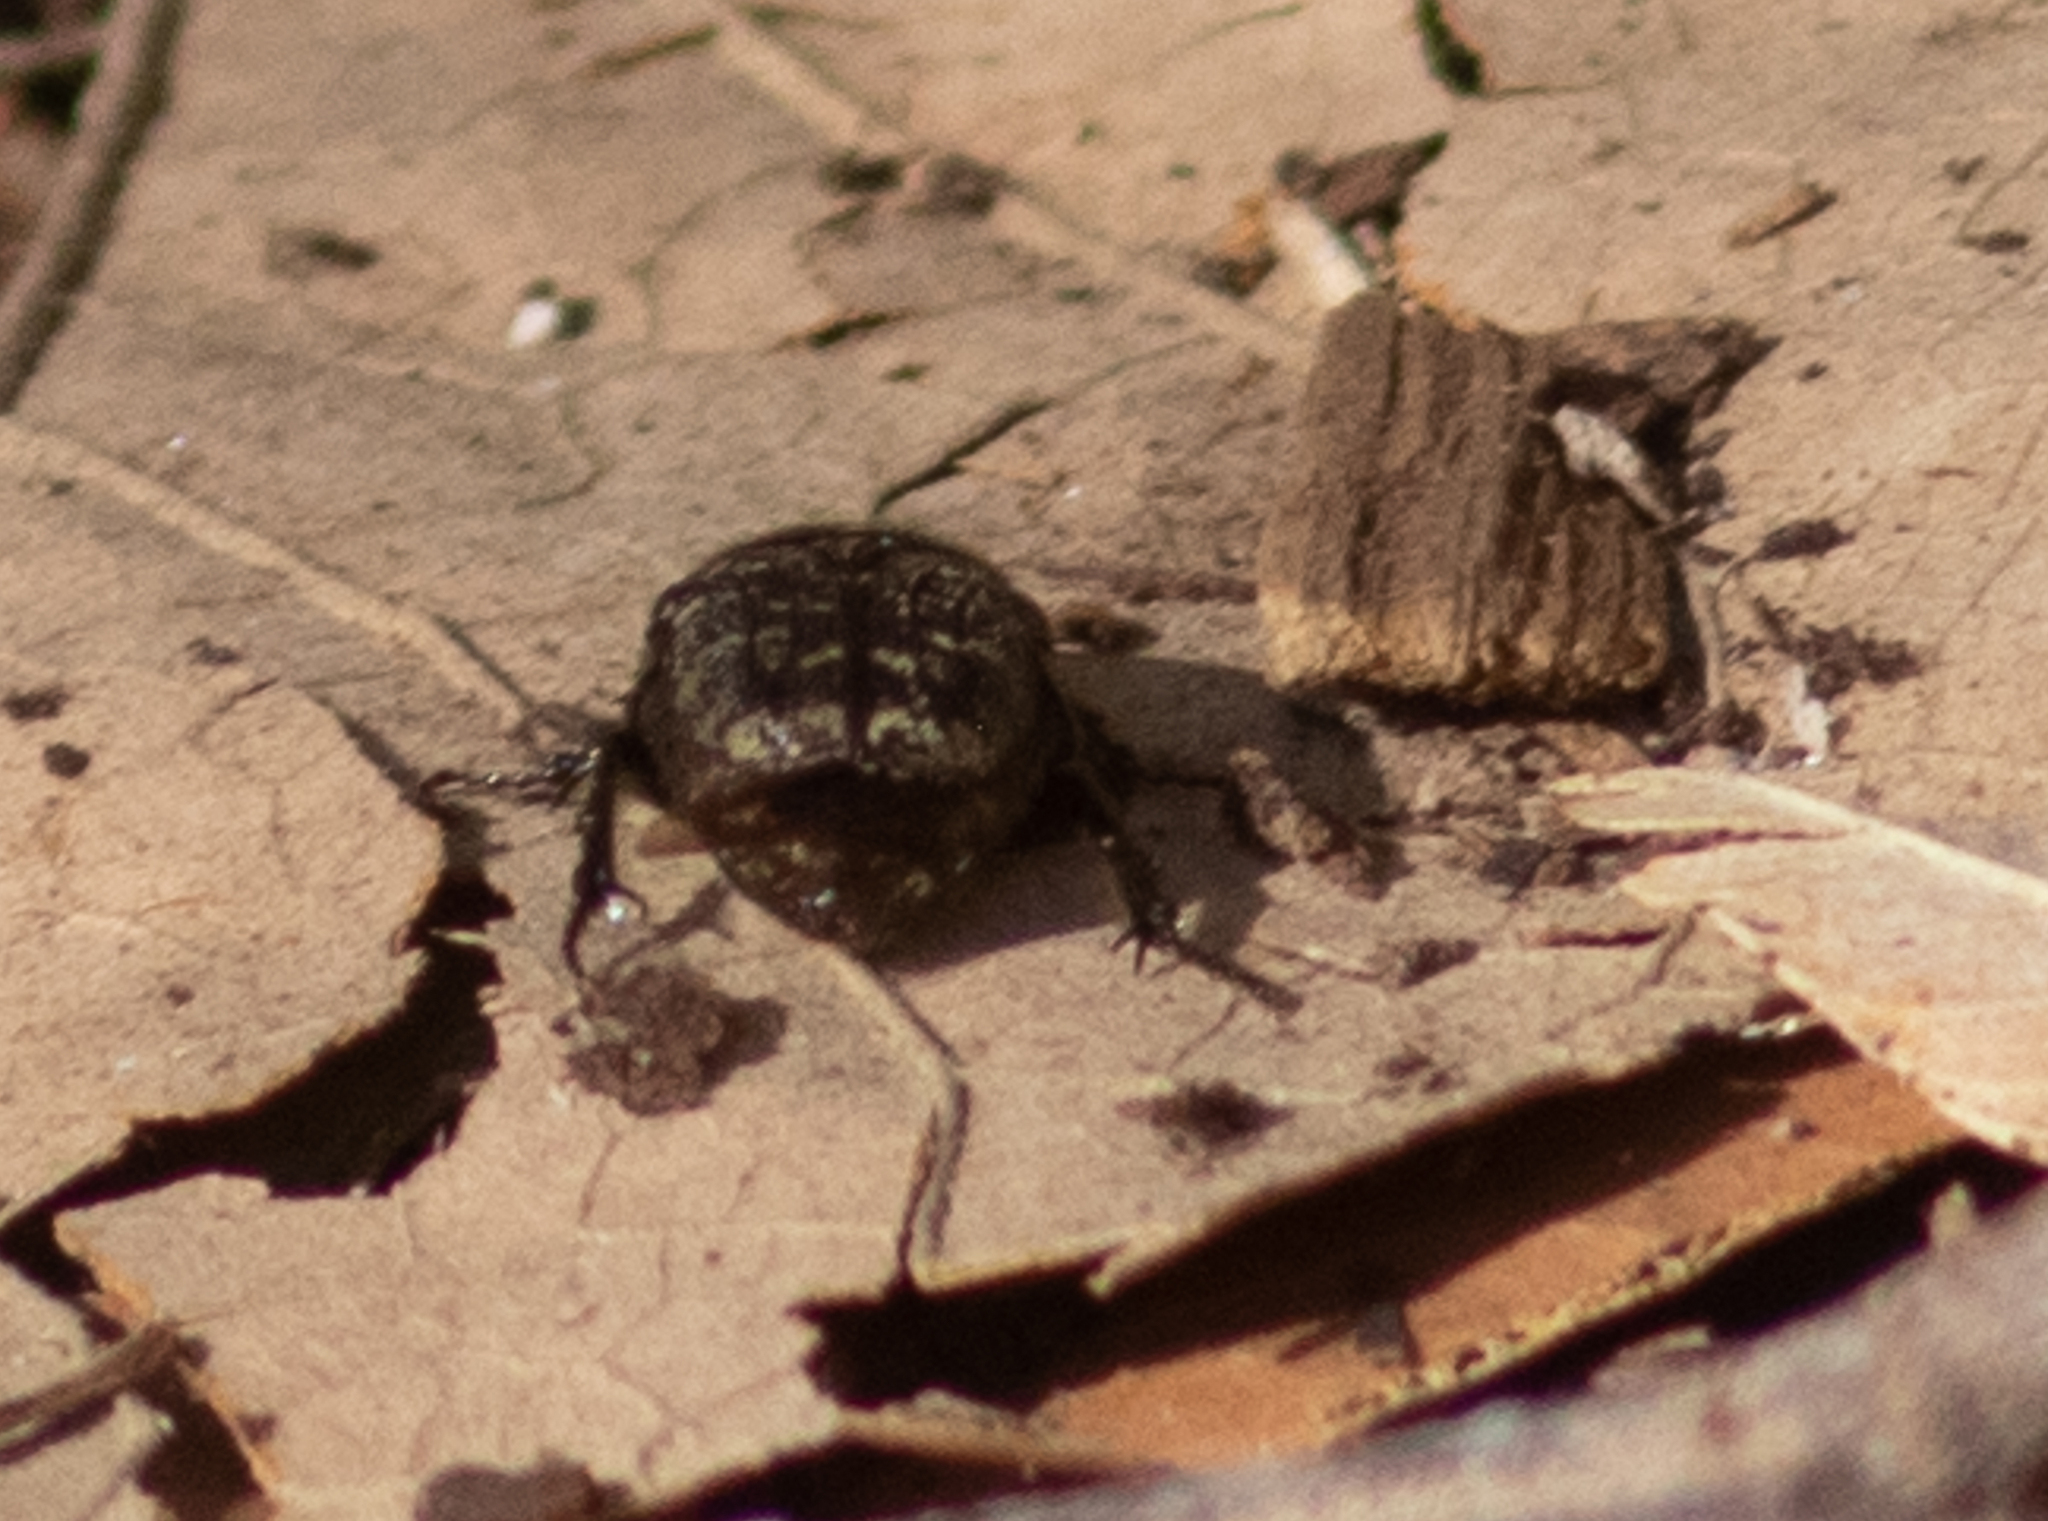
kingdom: Animalia
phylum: Arthropoda
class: Insecta
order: Coleoptera
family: Scarabaeidae
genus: Euphoria
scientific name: Euphoria sepulcralis
